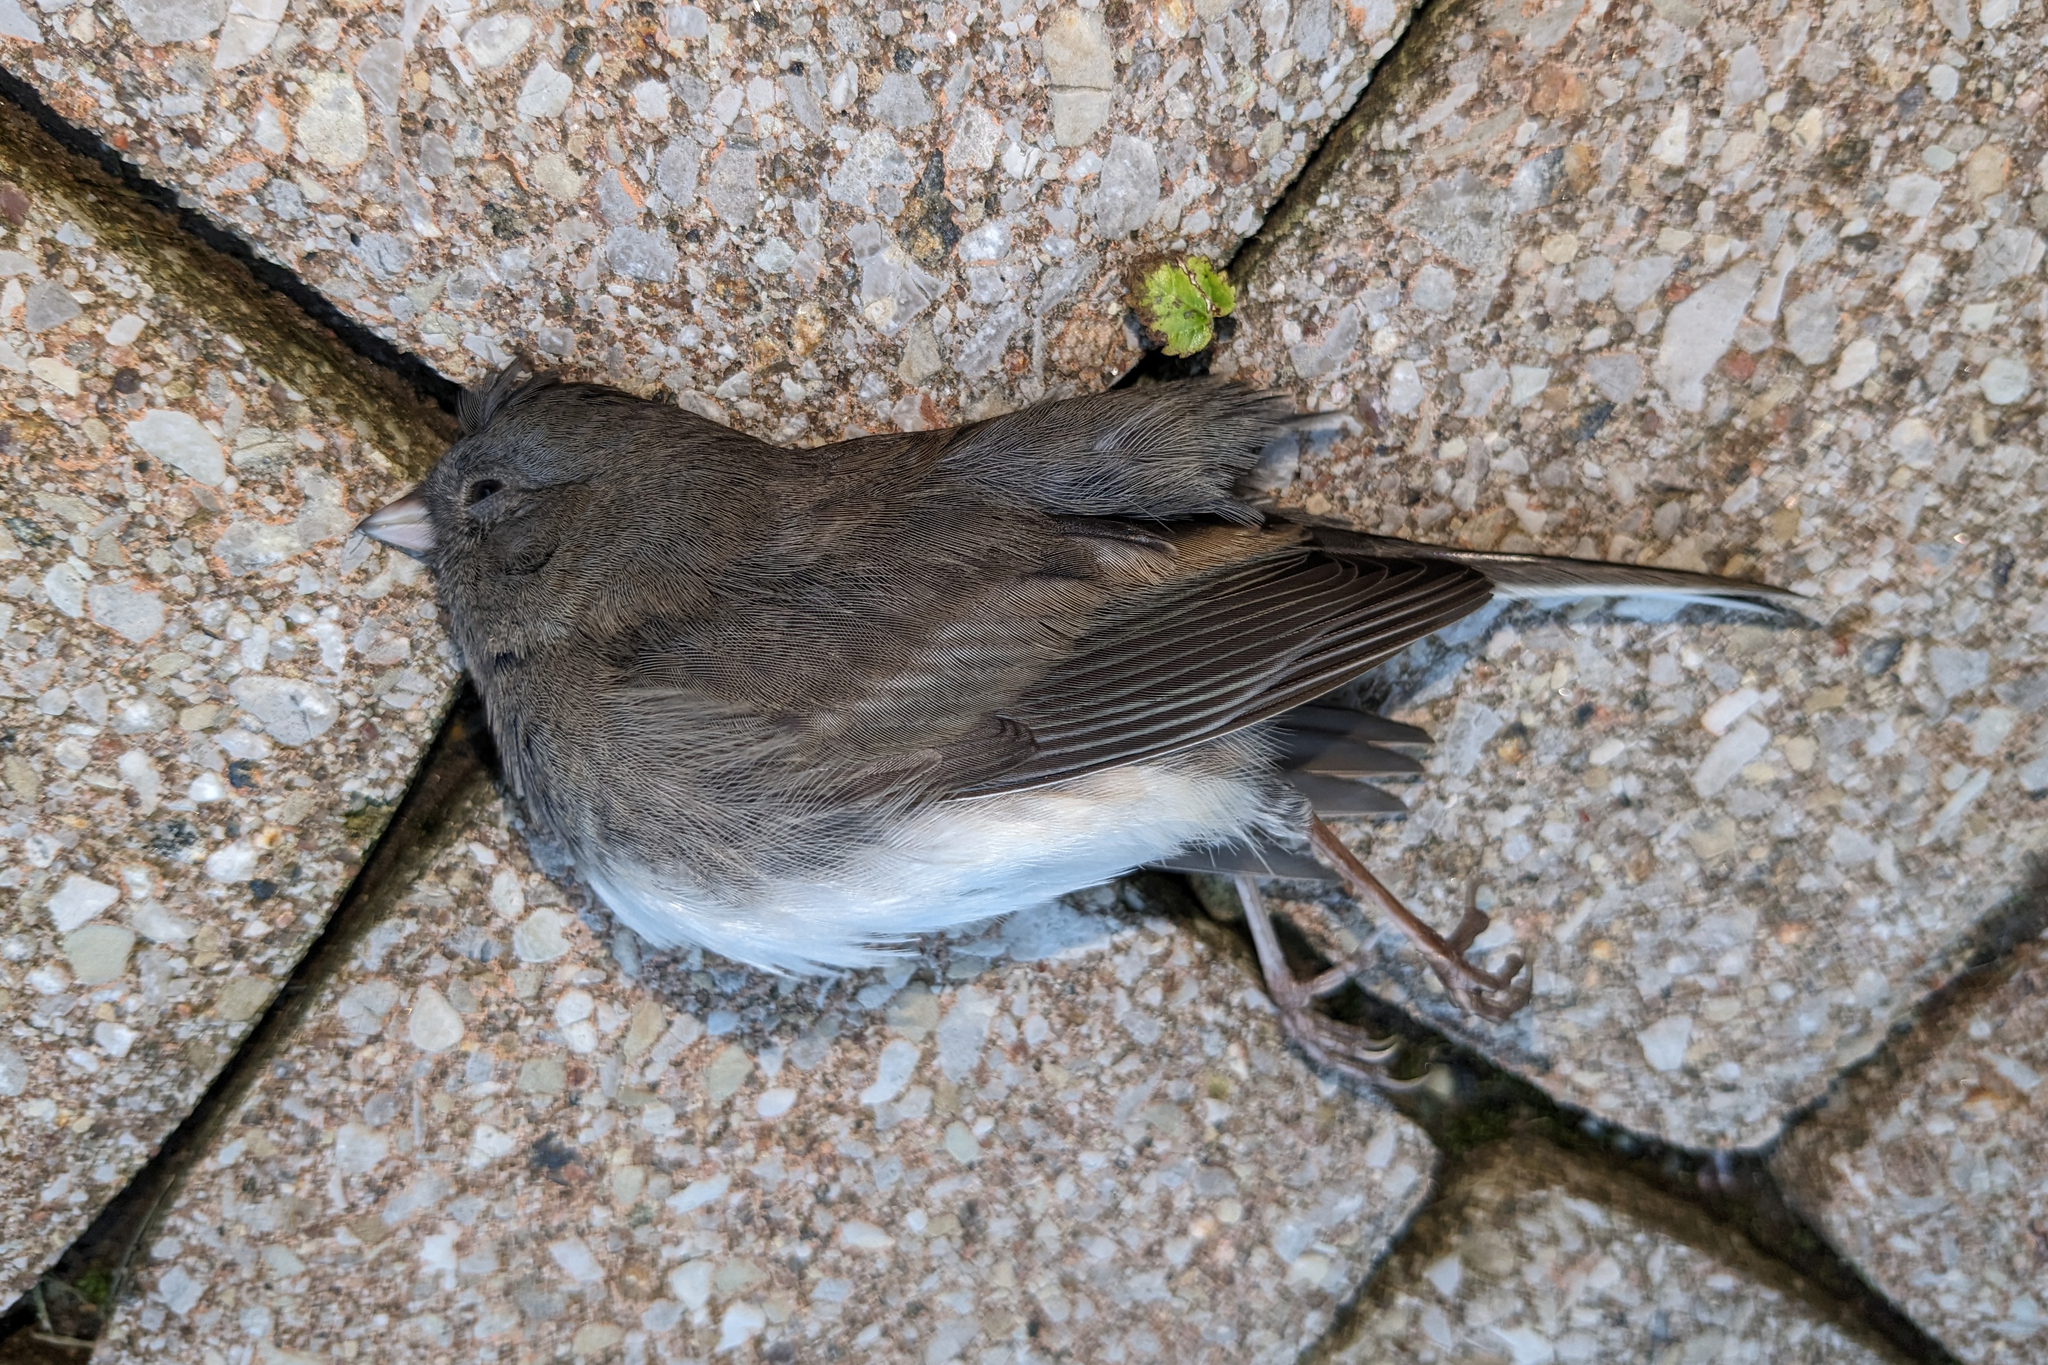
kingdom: Animalia
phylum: Chordata
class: Aves
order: Passeriformes
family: Passerellidae
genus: Junco
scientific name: Junco hyemalis
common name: Dark-eyed junco
